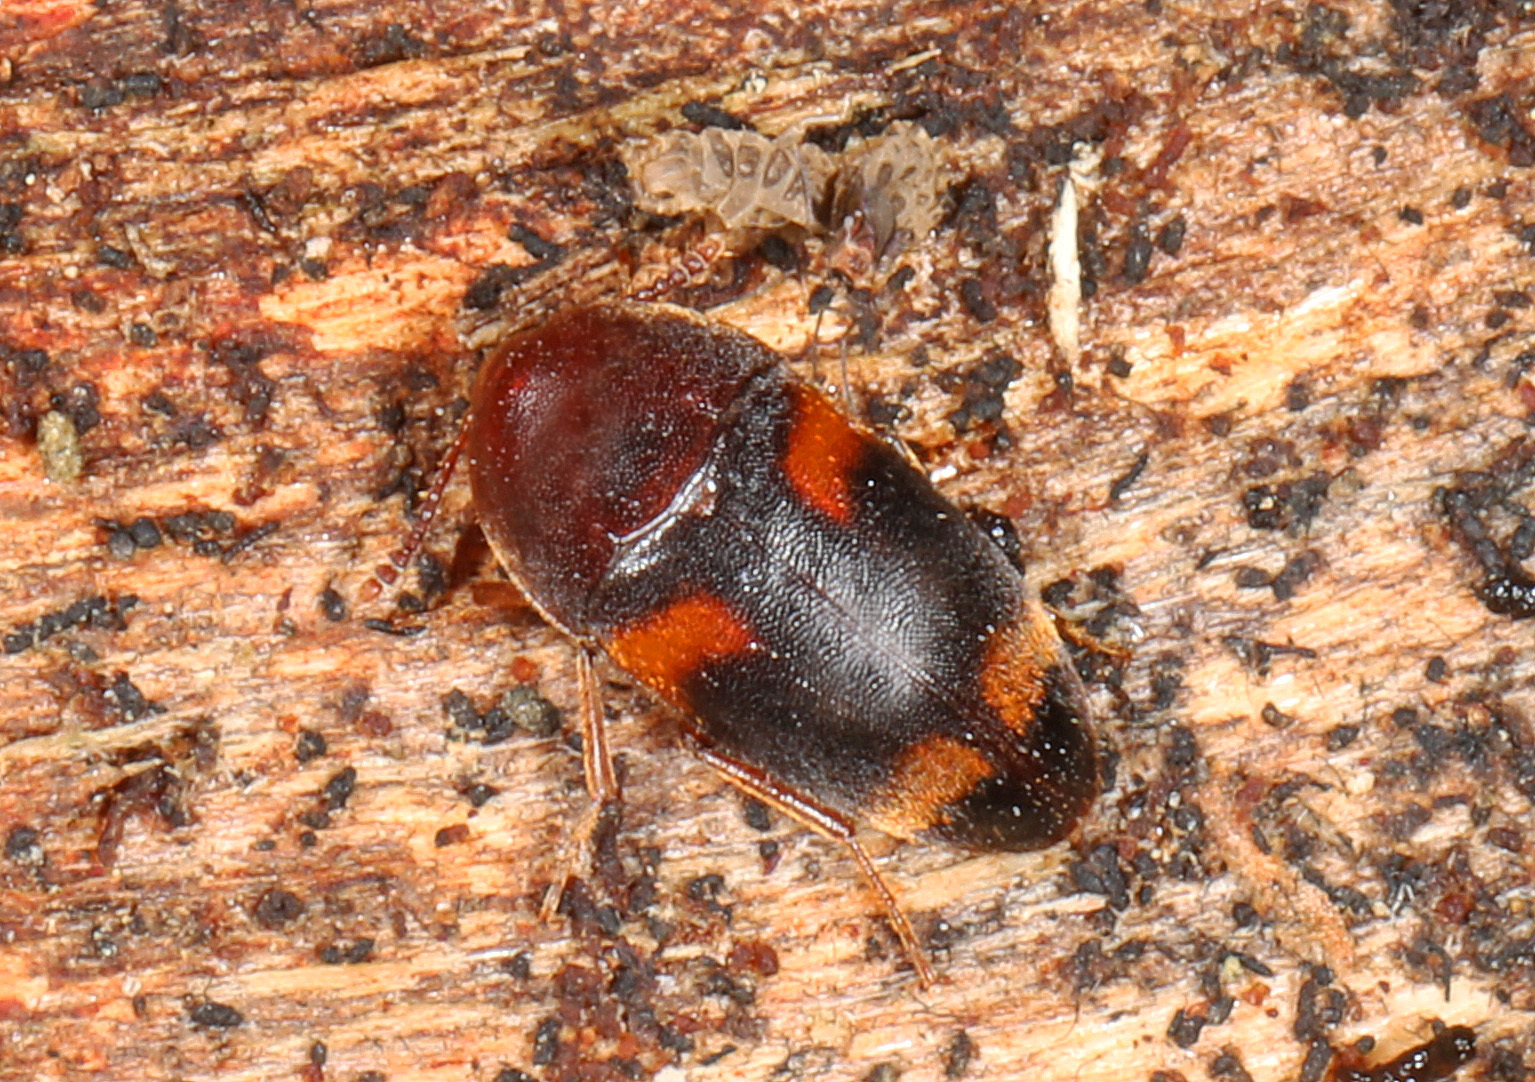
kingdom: Animalia
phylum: Arthropoda
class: Insecta
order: Coleoptera
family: Tetratomidae
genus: Holostrophus
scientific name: Holostrophus bifasciatus
